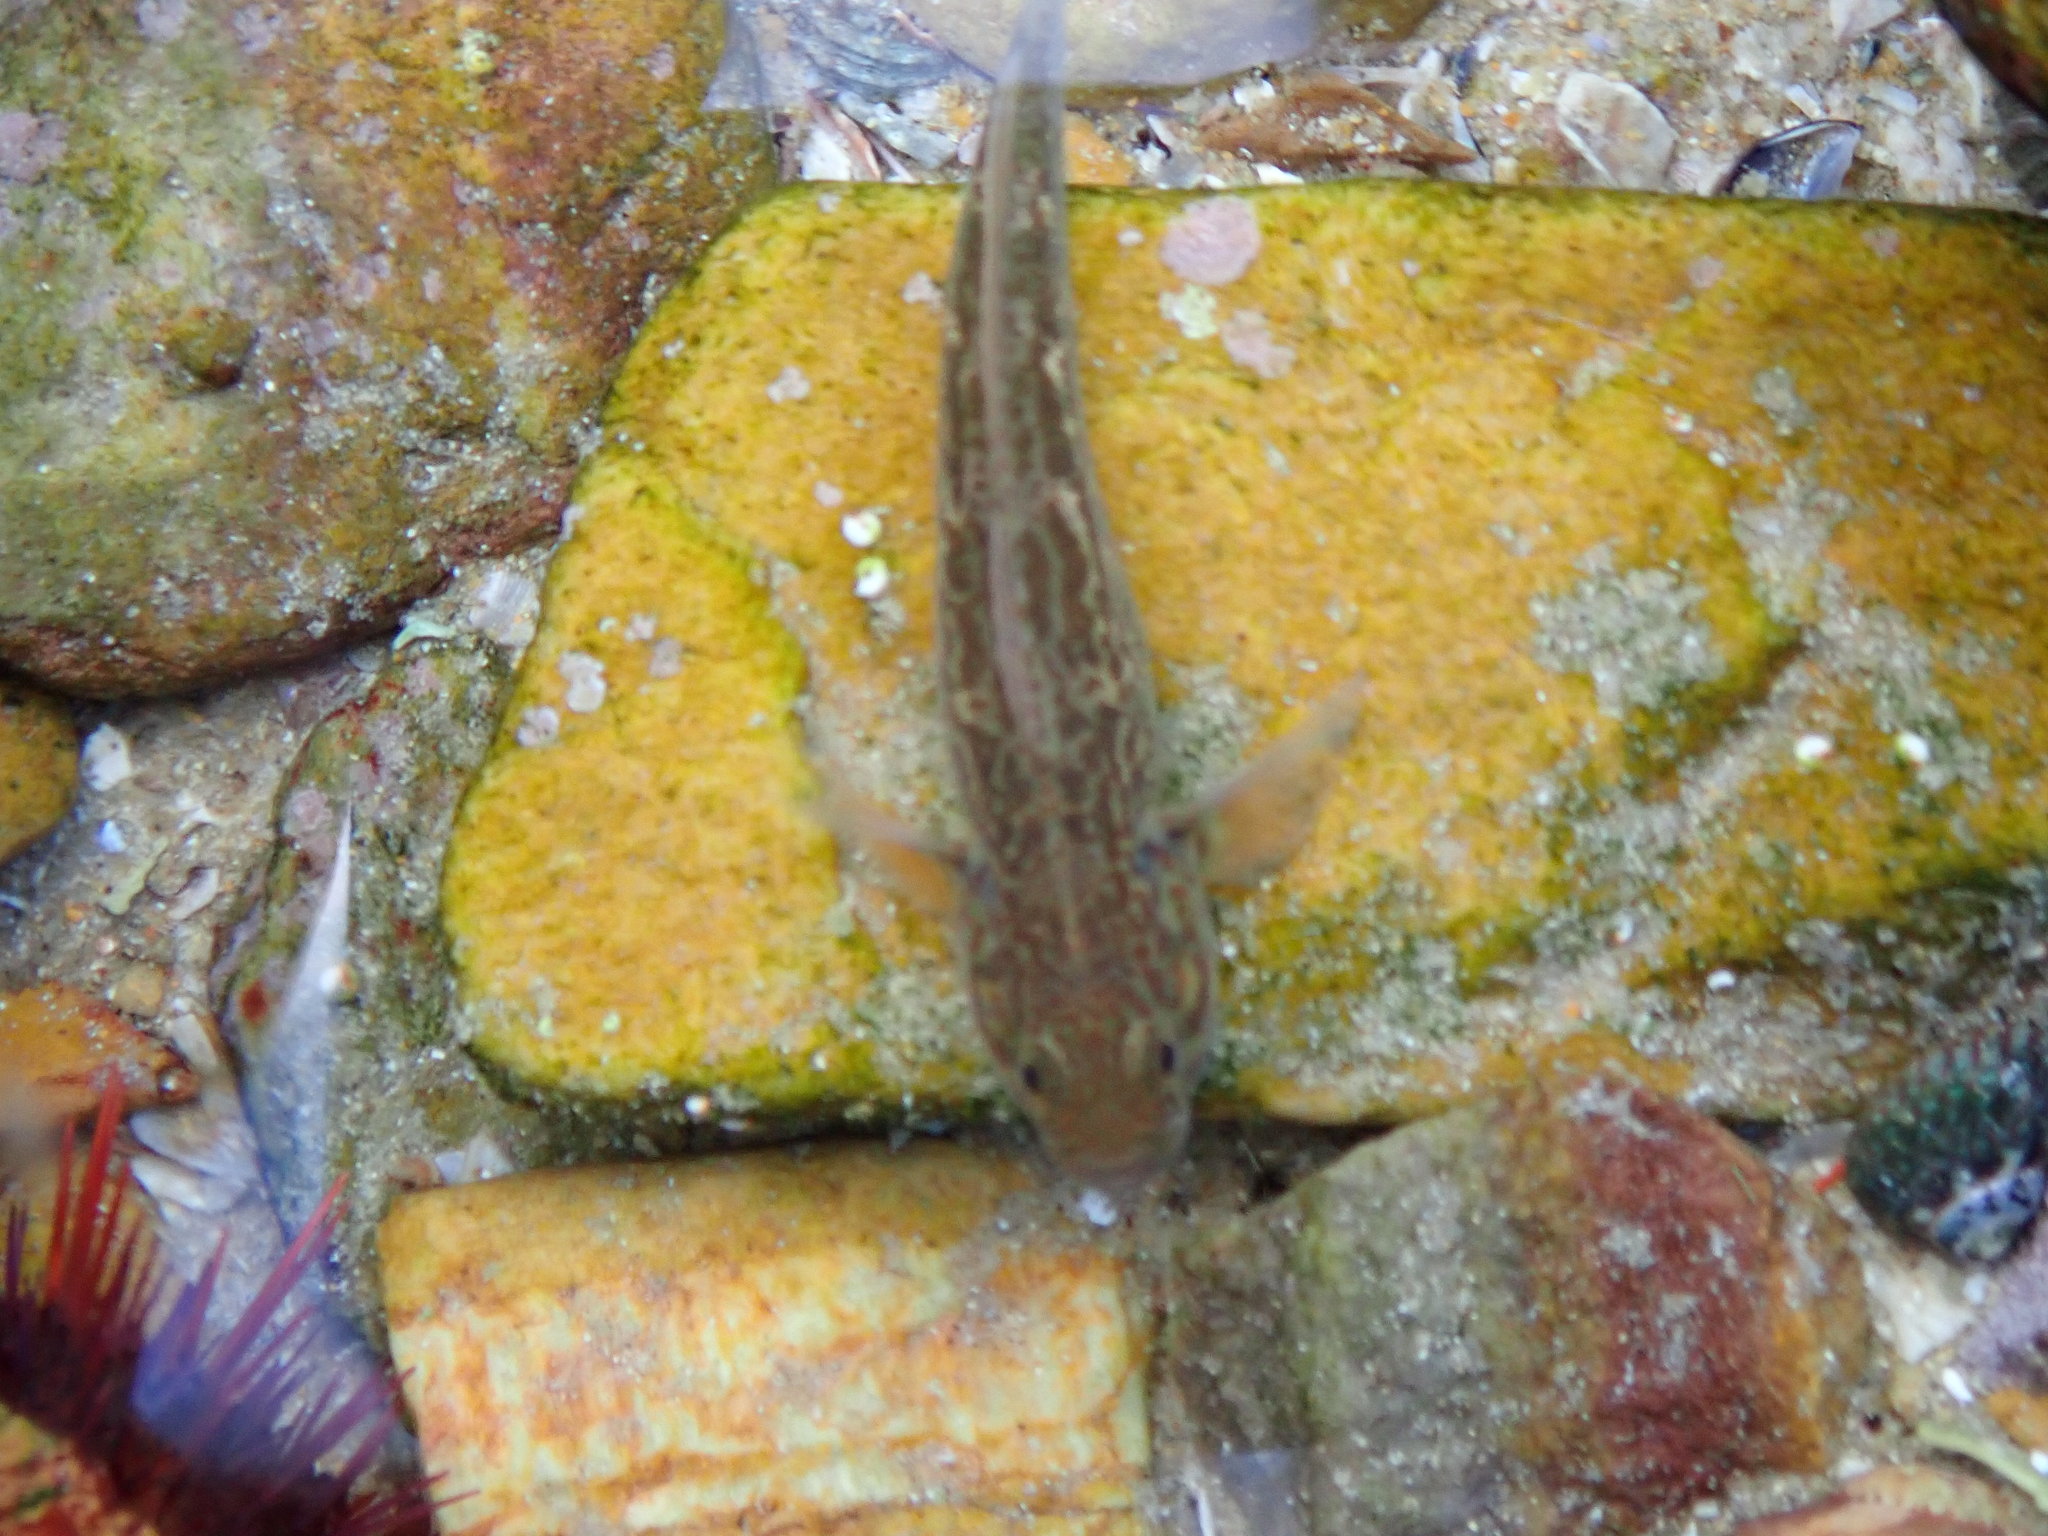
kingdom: Animalia
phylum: Chordata
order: Perciformes
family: Gobiidae
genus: Caffrogobius
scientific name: Caffrogobius caffer
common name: Banded goby
